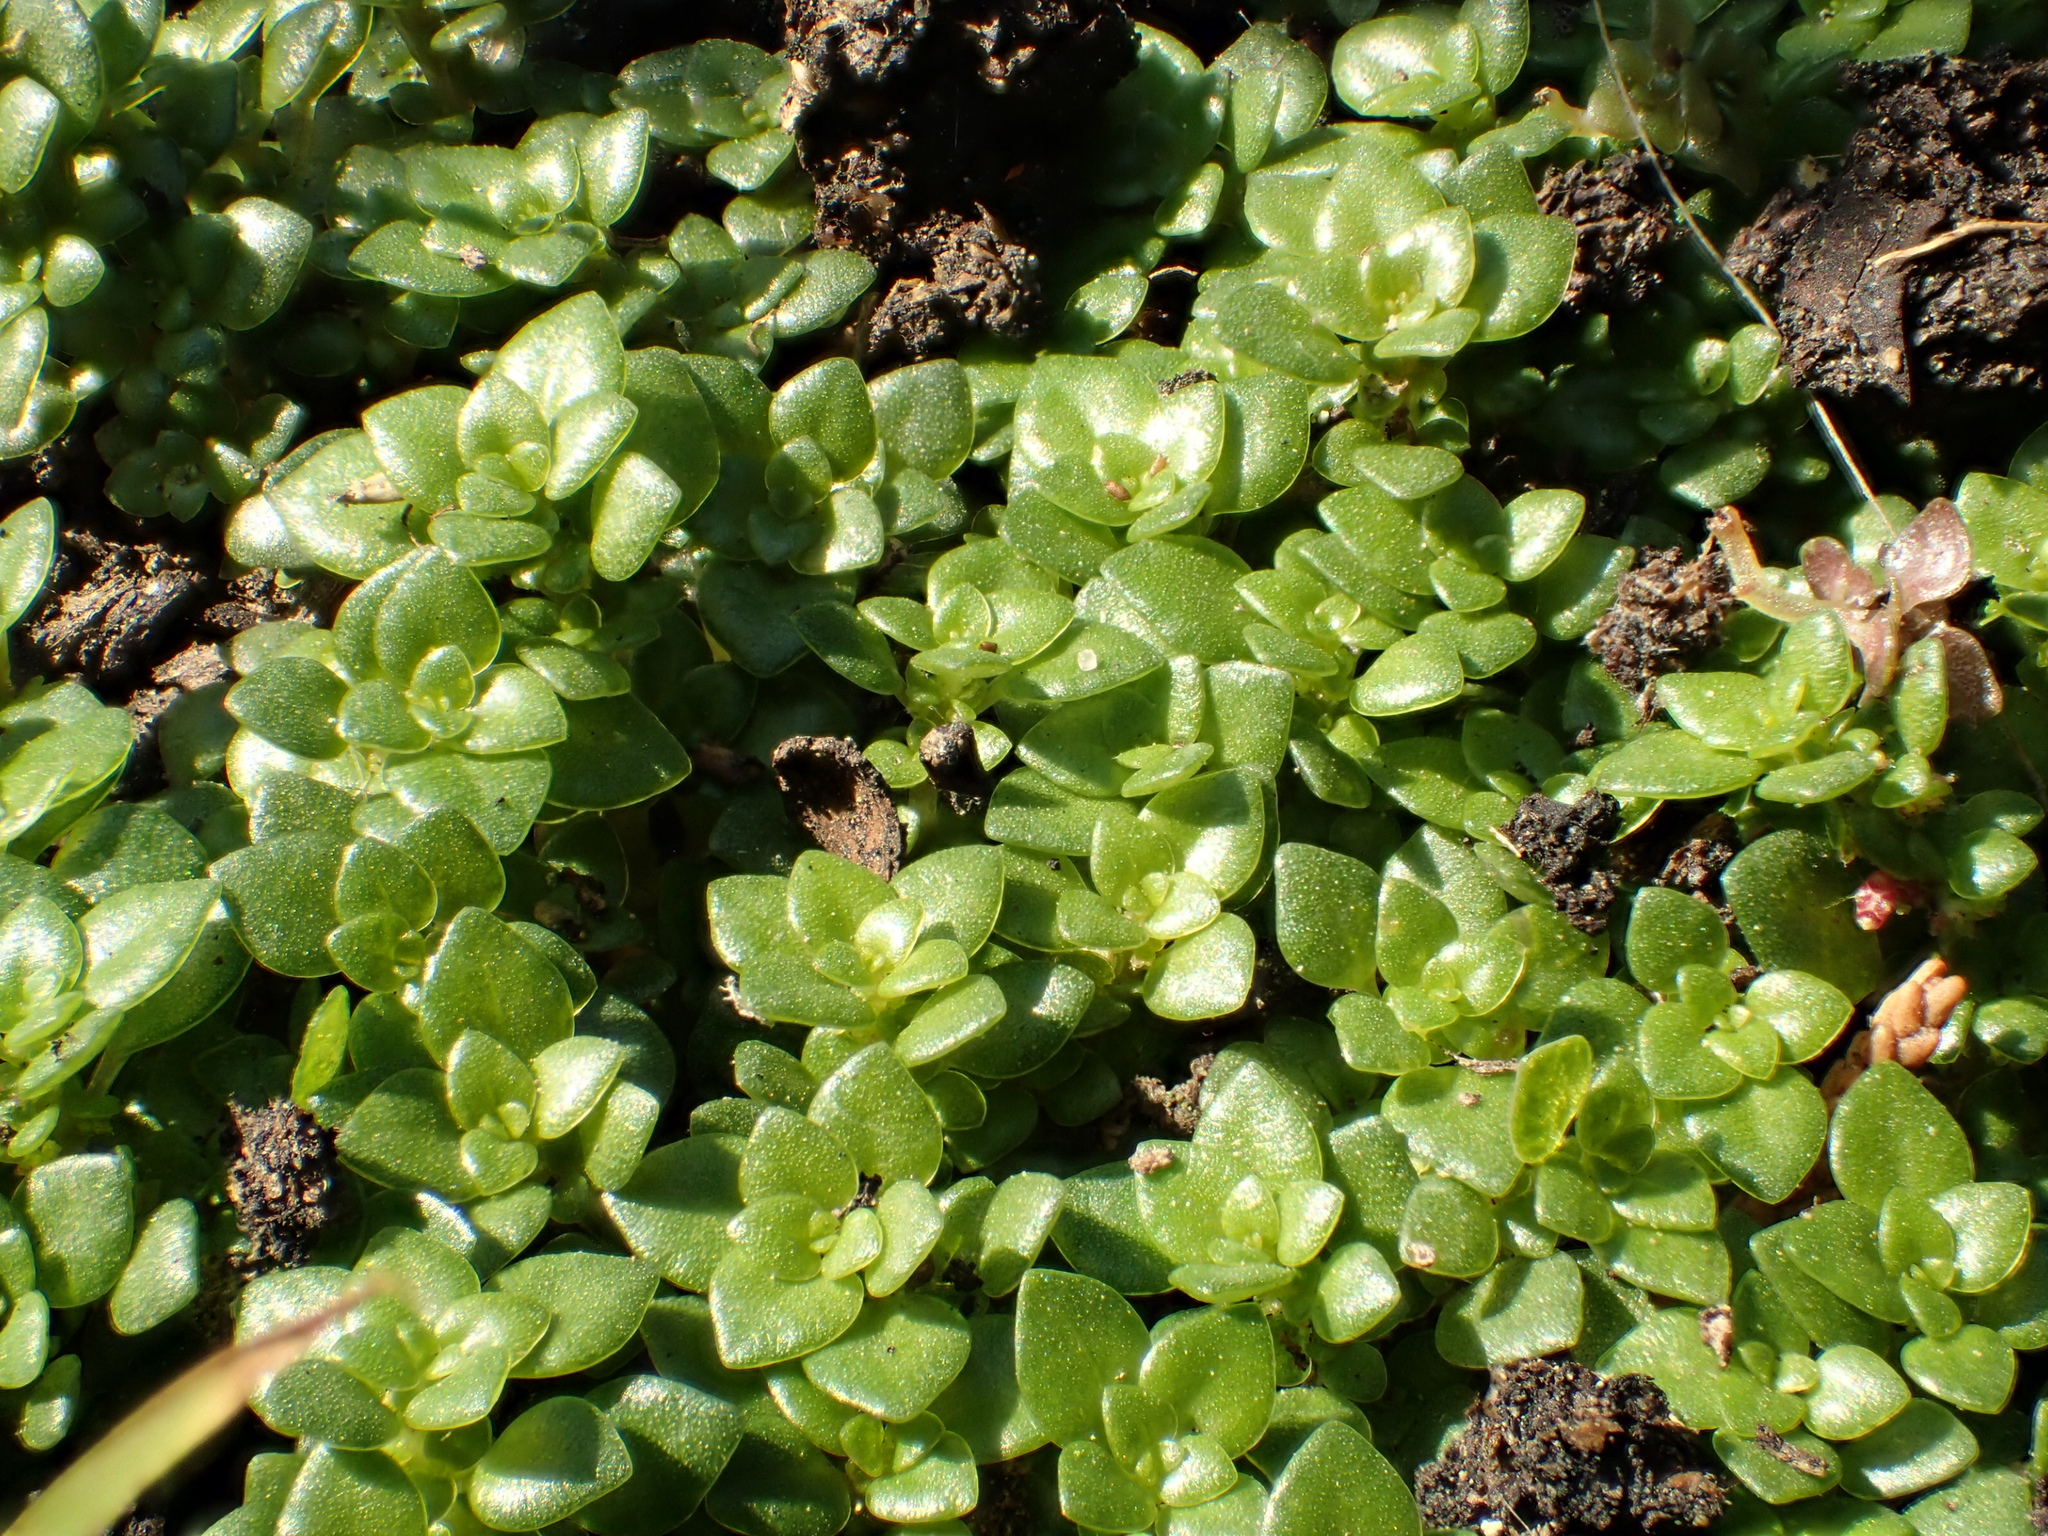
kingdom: Plantae
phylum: Tracheophyta
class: Magnoliopsida
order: Rosales
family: Urticaceae
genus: Pilea
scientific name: Pilea microphylla
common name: Artillery-plant
